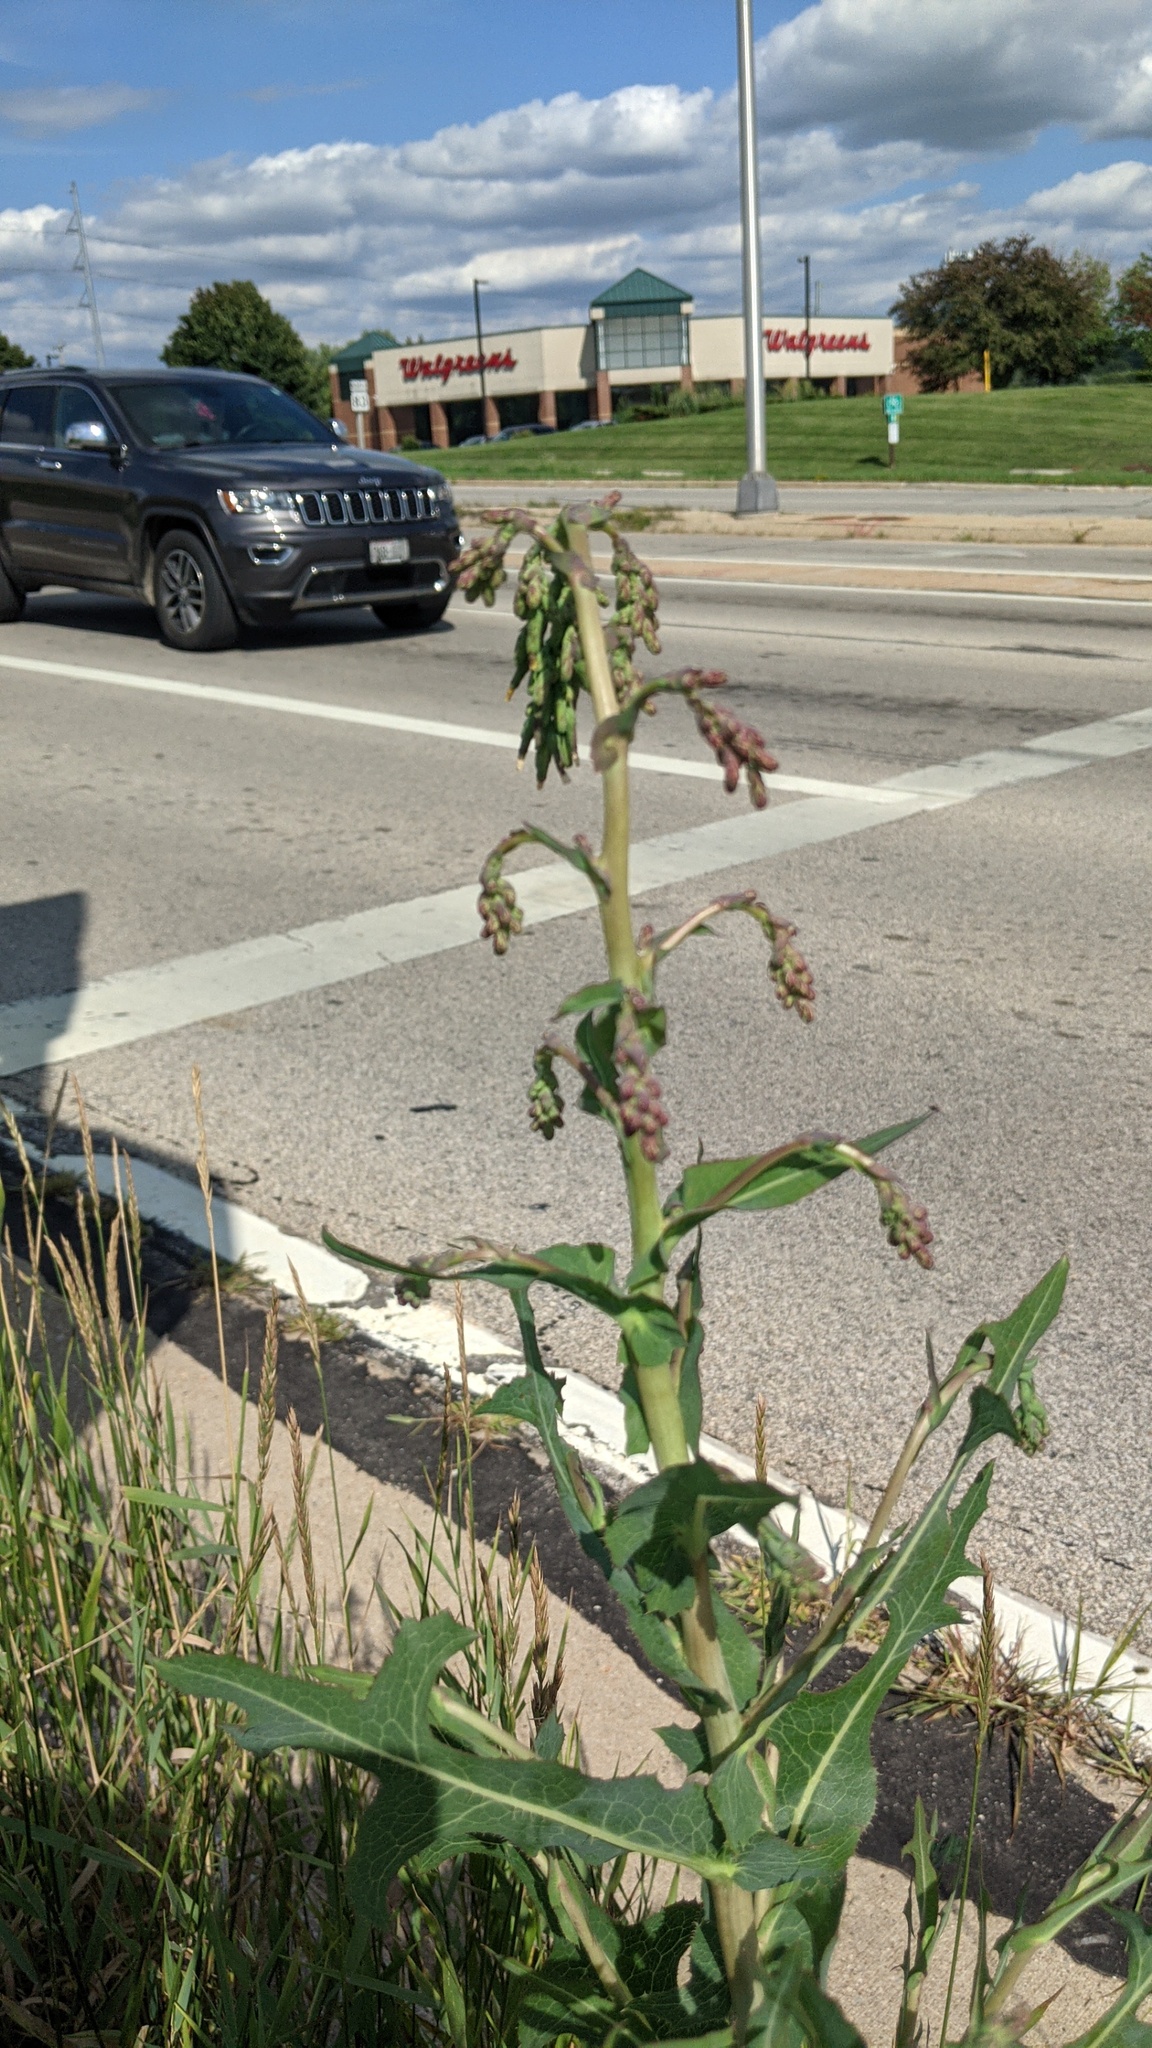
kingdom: Plantae
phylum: Tracheophyta
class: Magnoliopsida
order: Asterales
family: Asteraceae
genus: Lactuca
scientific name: Lactuca serriola
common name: Prickly lettuce
